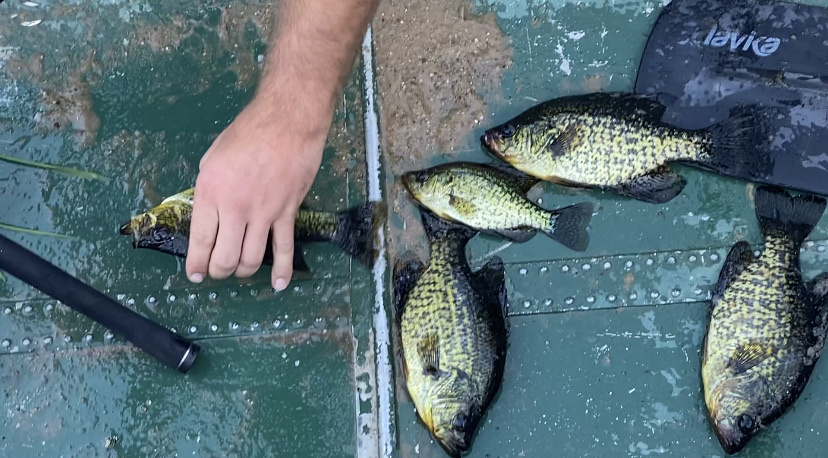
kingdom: Animalia
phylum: Chordata
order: Perciformes
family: Centrarchidae
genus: Pomoxis
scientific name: Pomoxis nigromaculatus
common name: Black crappie
